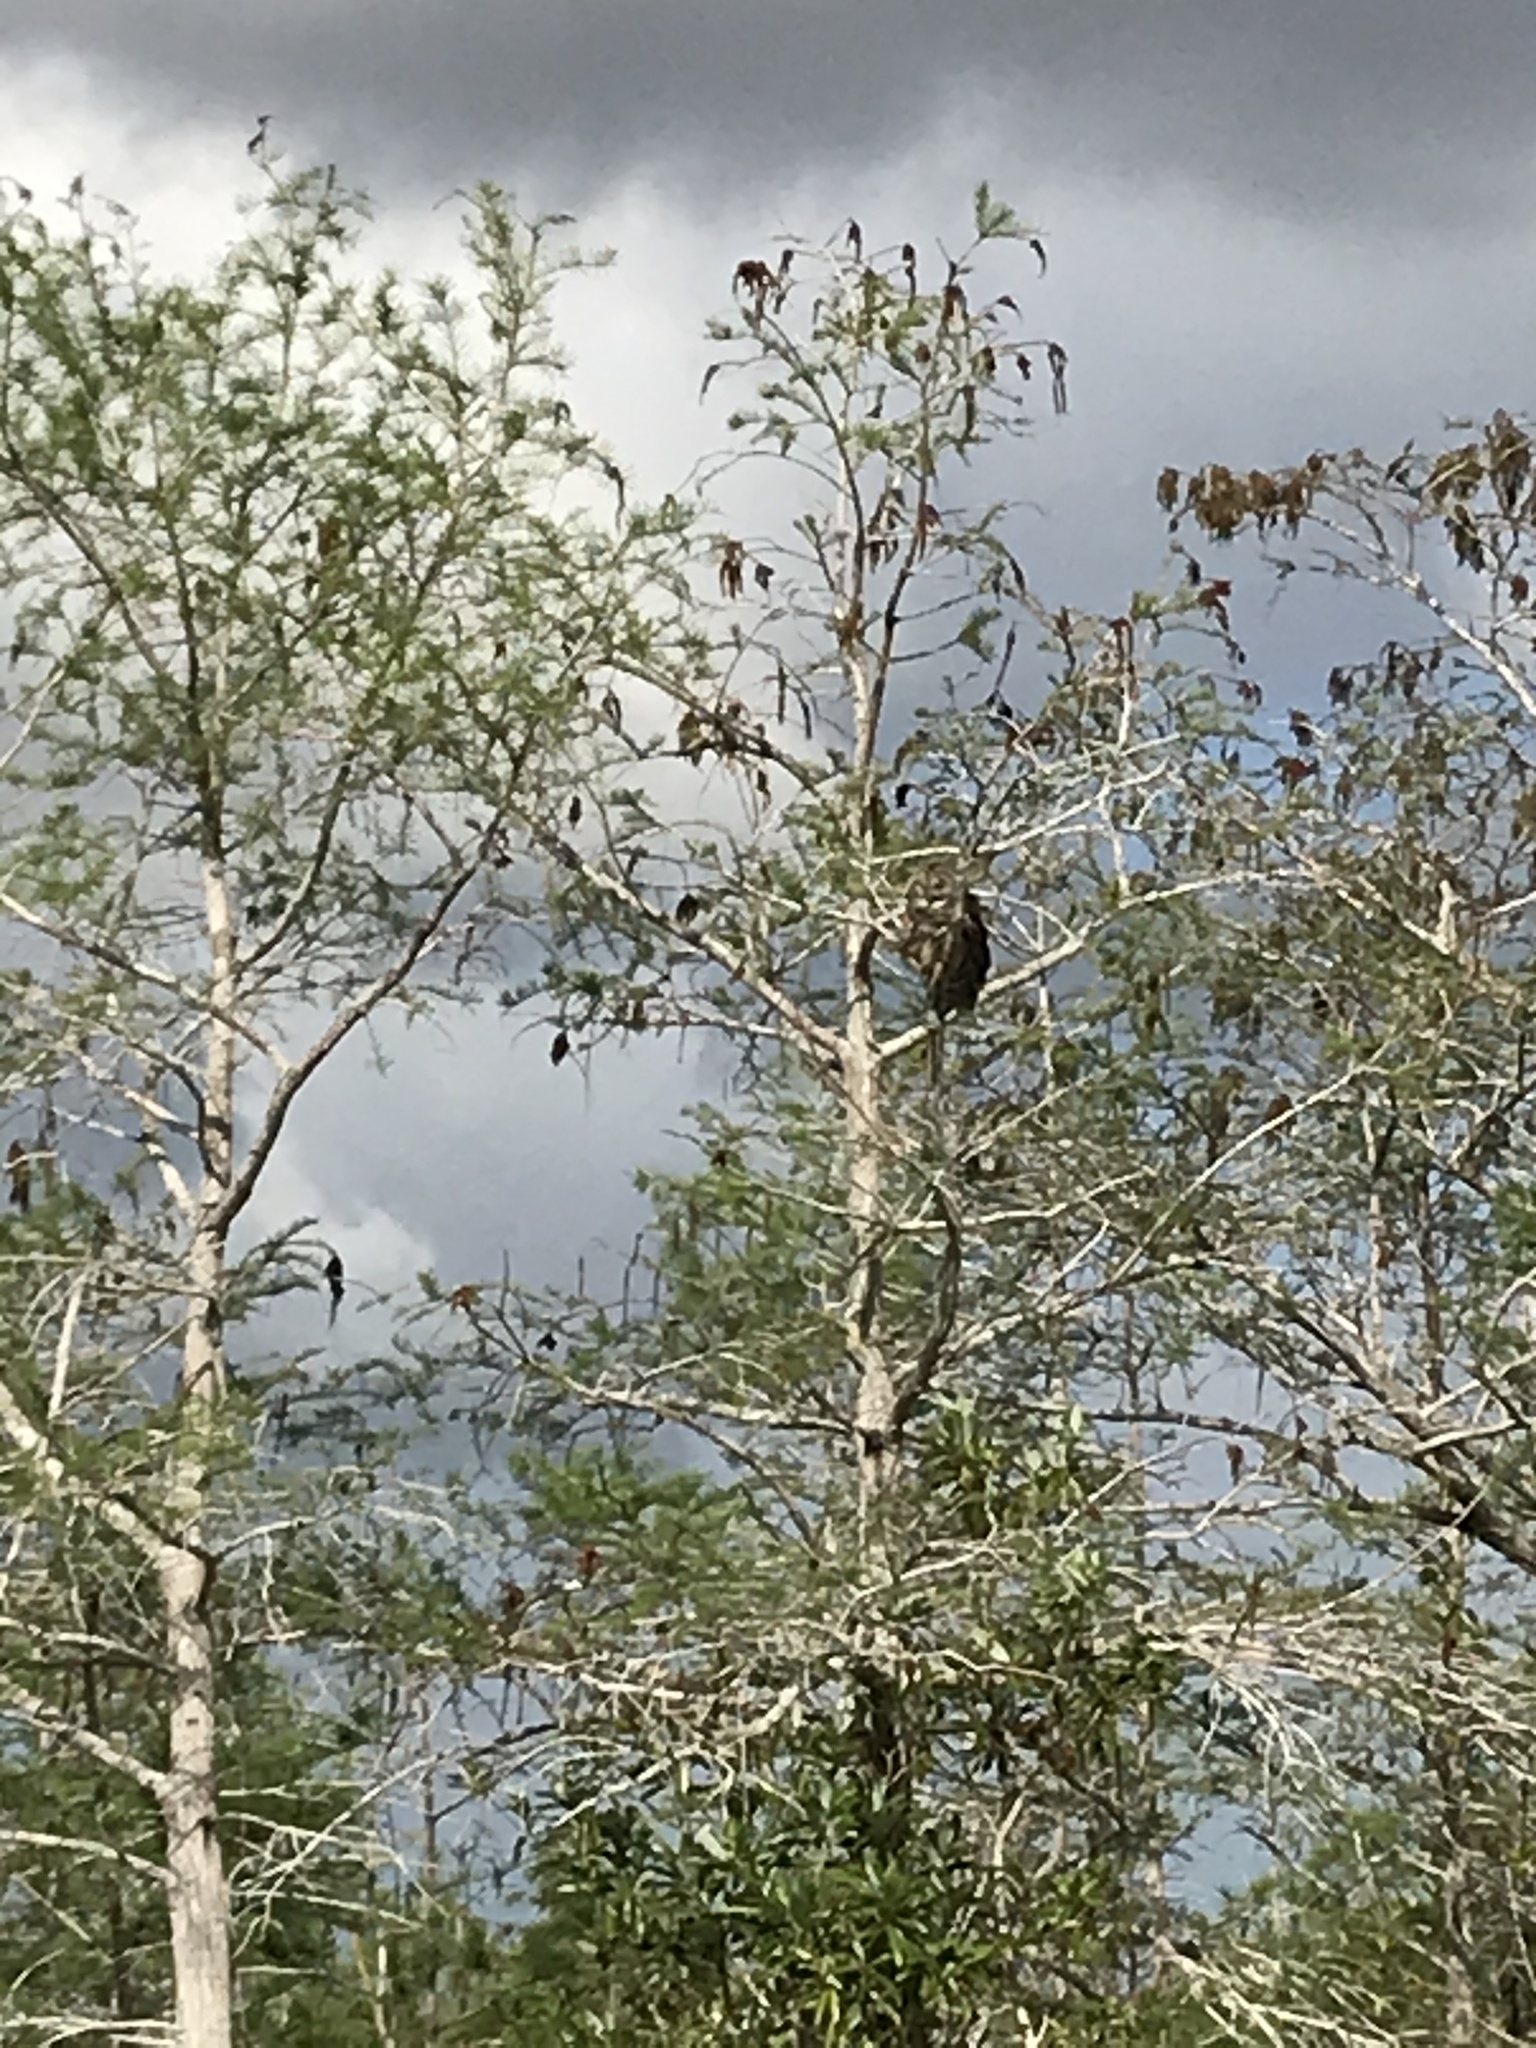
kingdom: Animalia
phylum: Chordata
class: Aves
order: Strigiformes
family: Strigidae
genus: Strix
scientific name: Strix varia
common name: Barred owl
